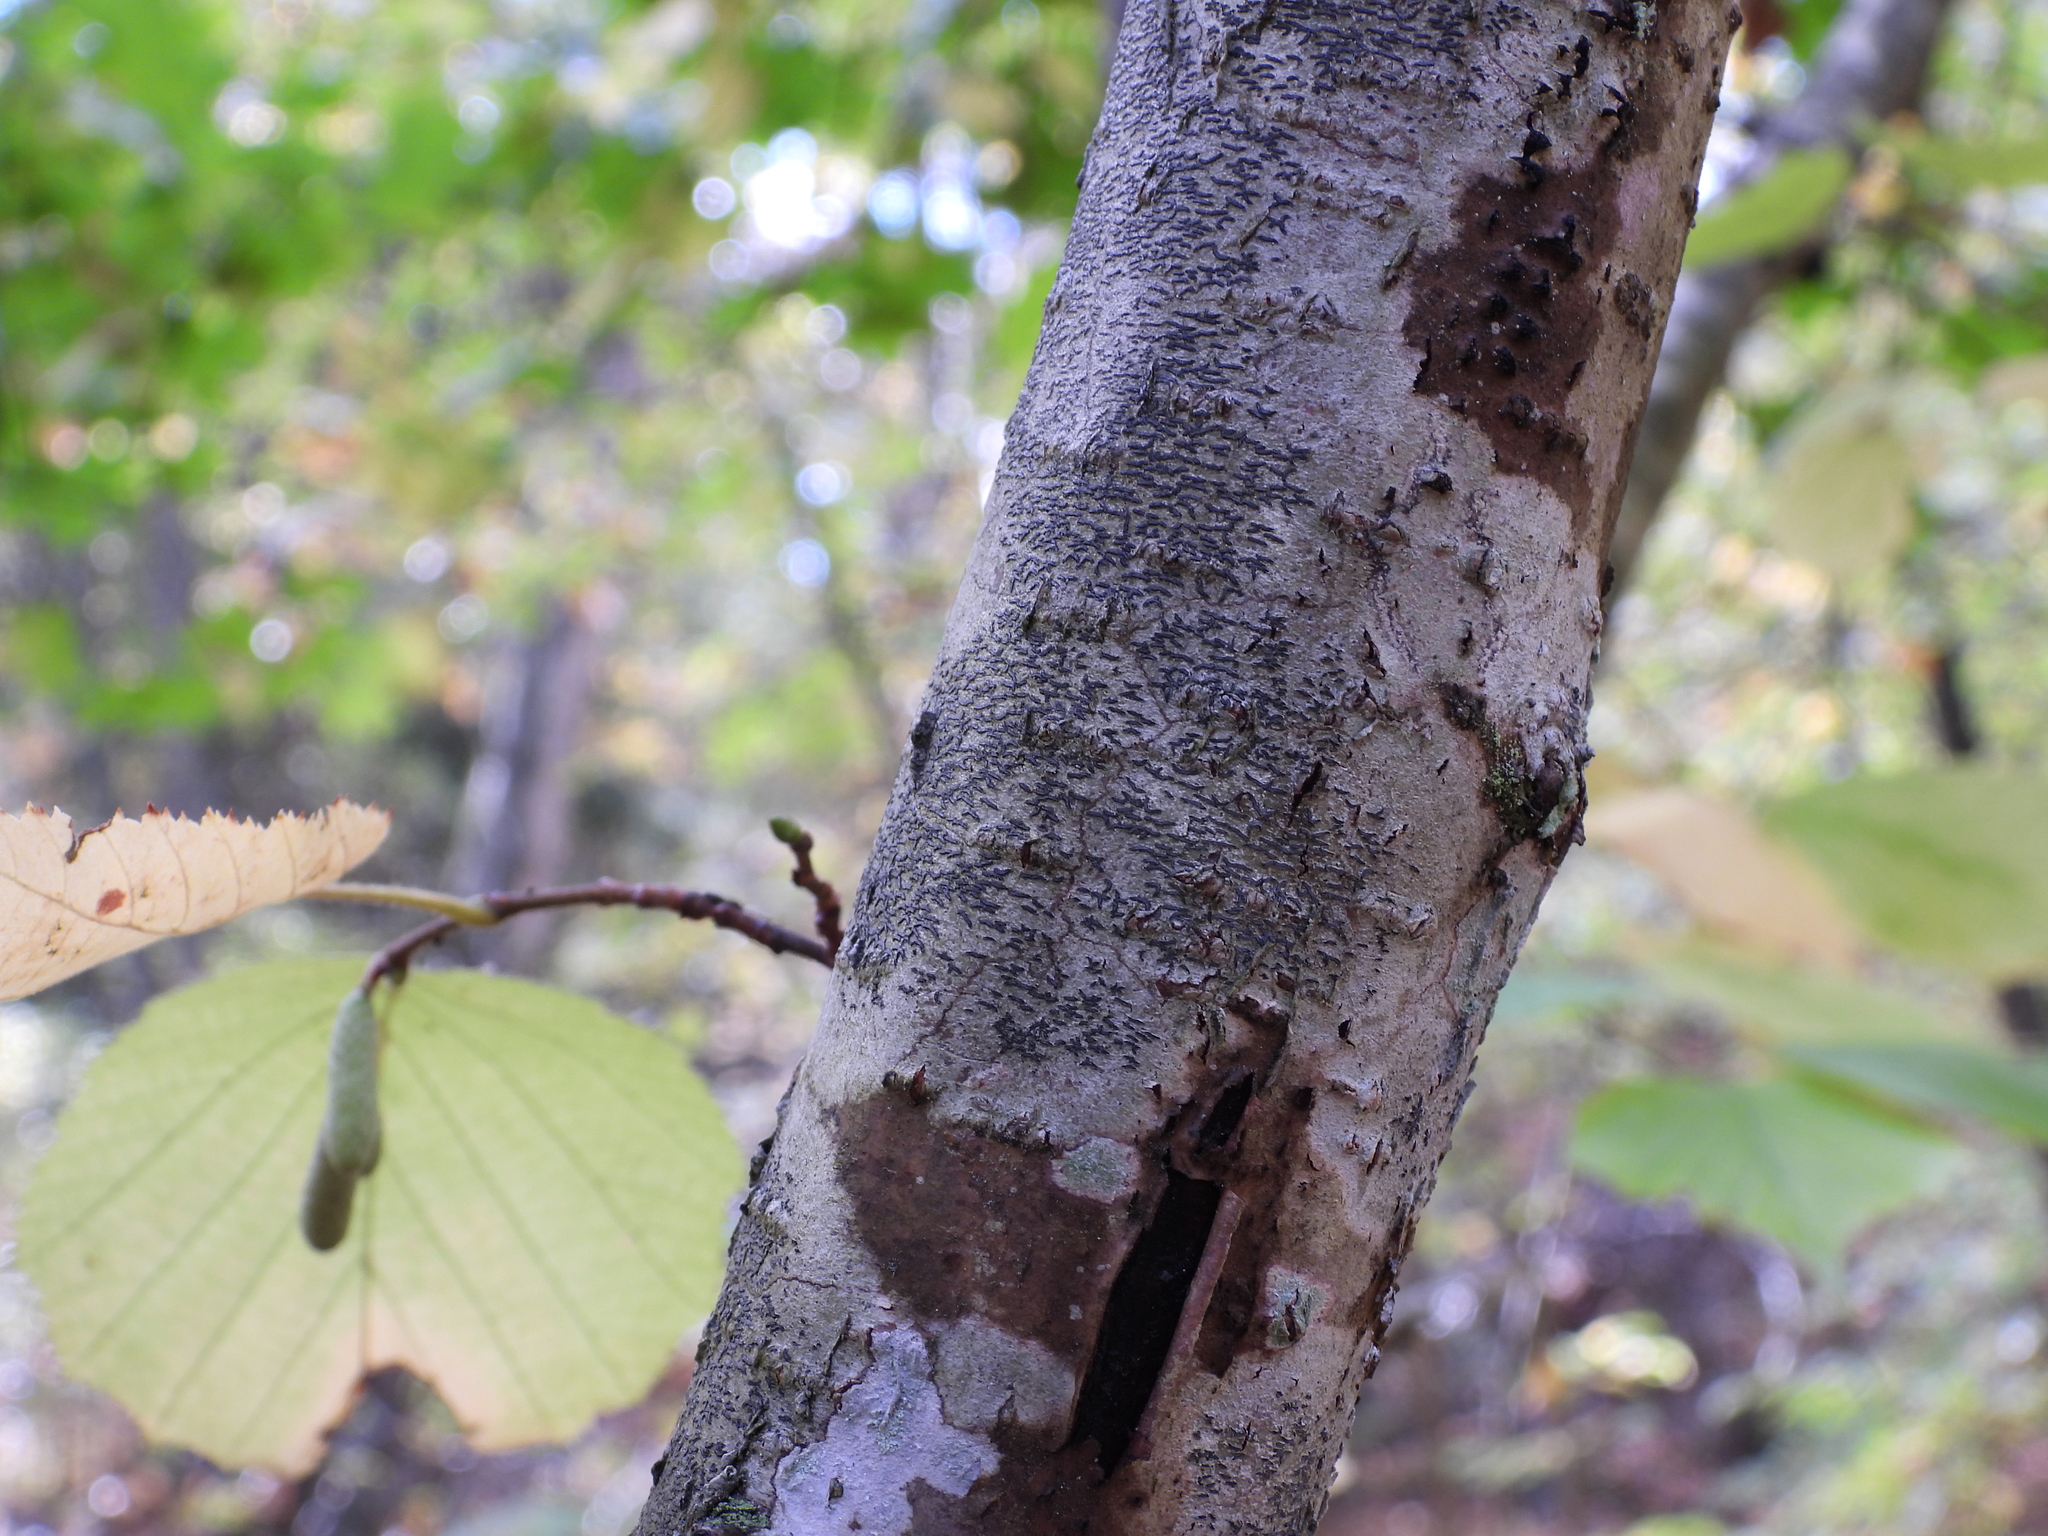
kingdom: Fungi
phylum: Ascomycota
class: Lecanoromycetes
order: Ostropales
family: Graphidaceae
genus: Graphis
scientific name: Graphis scripta
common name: Script lichen
